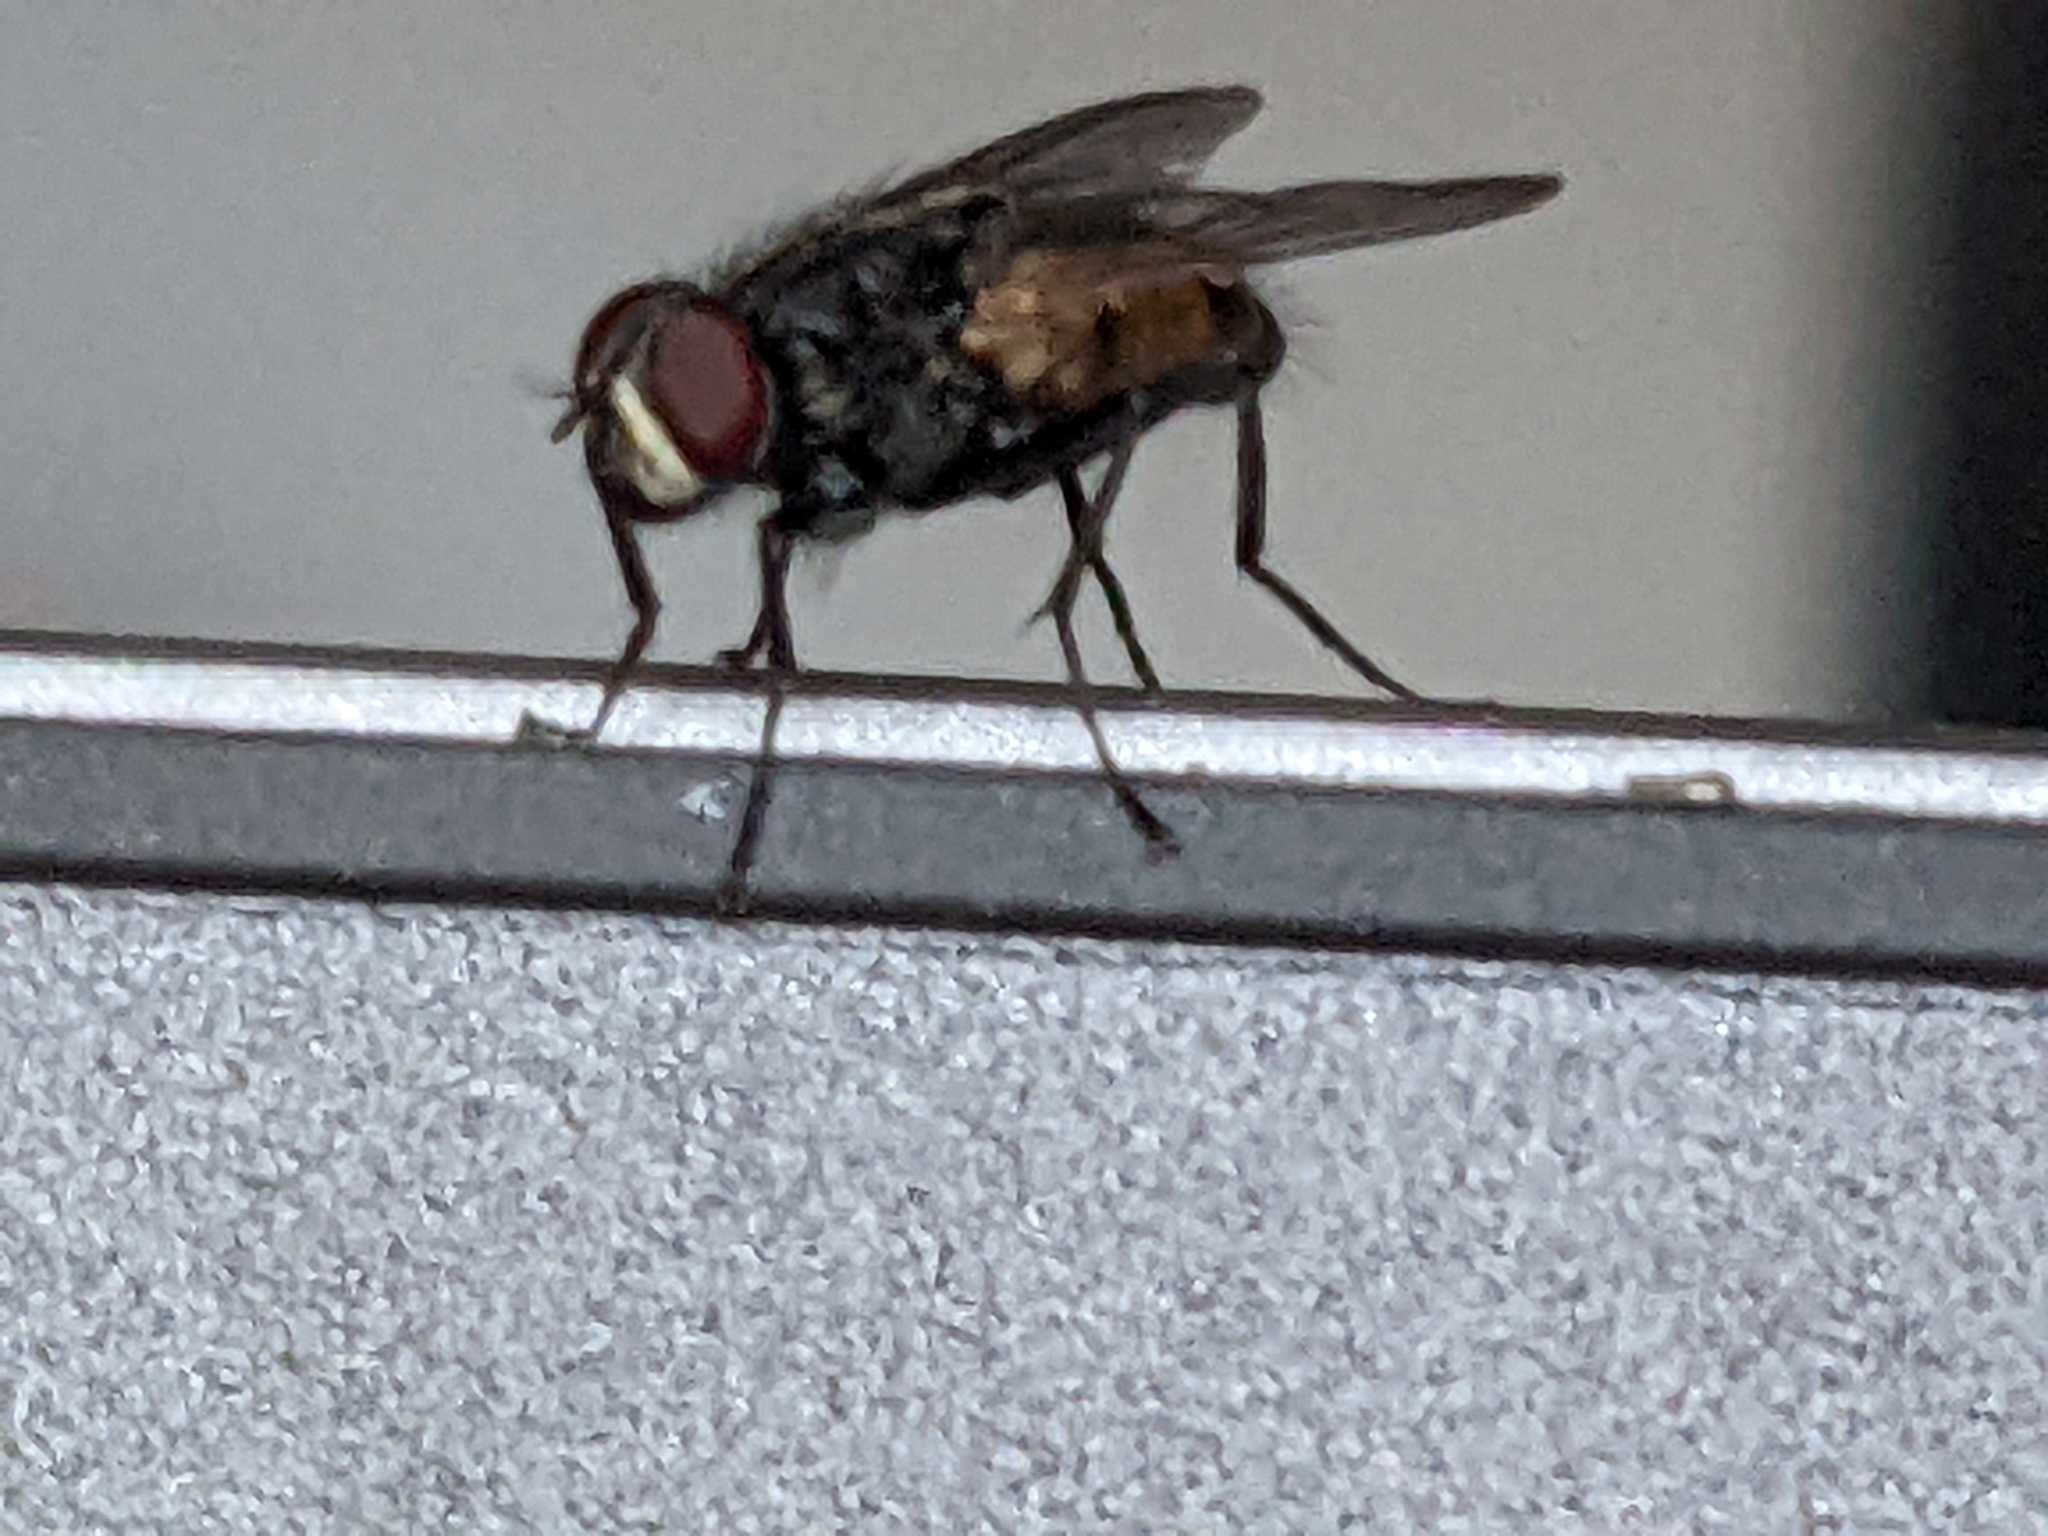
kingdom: Animalia
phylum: Arthropoda
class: Insecta
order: Diptera
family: Muscidae
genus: Musca
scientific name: Musca domestica
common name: House fly
